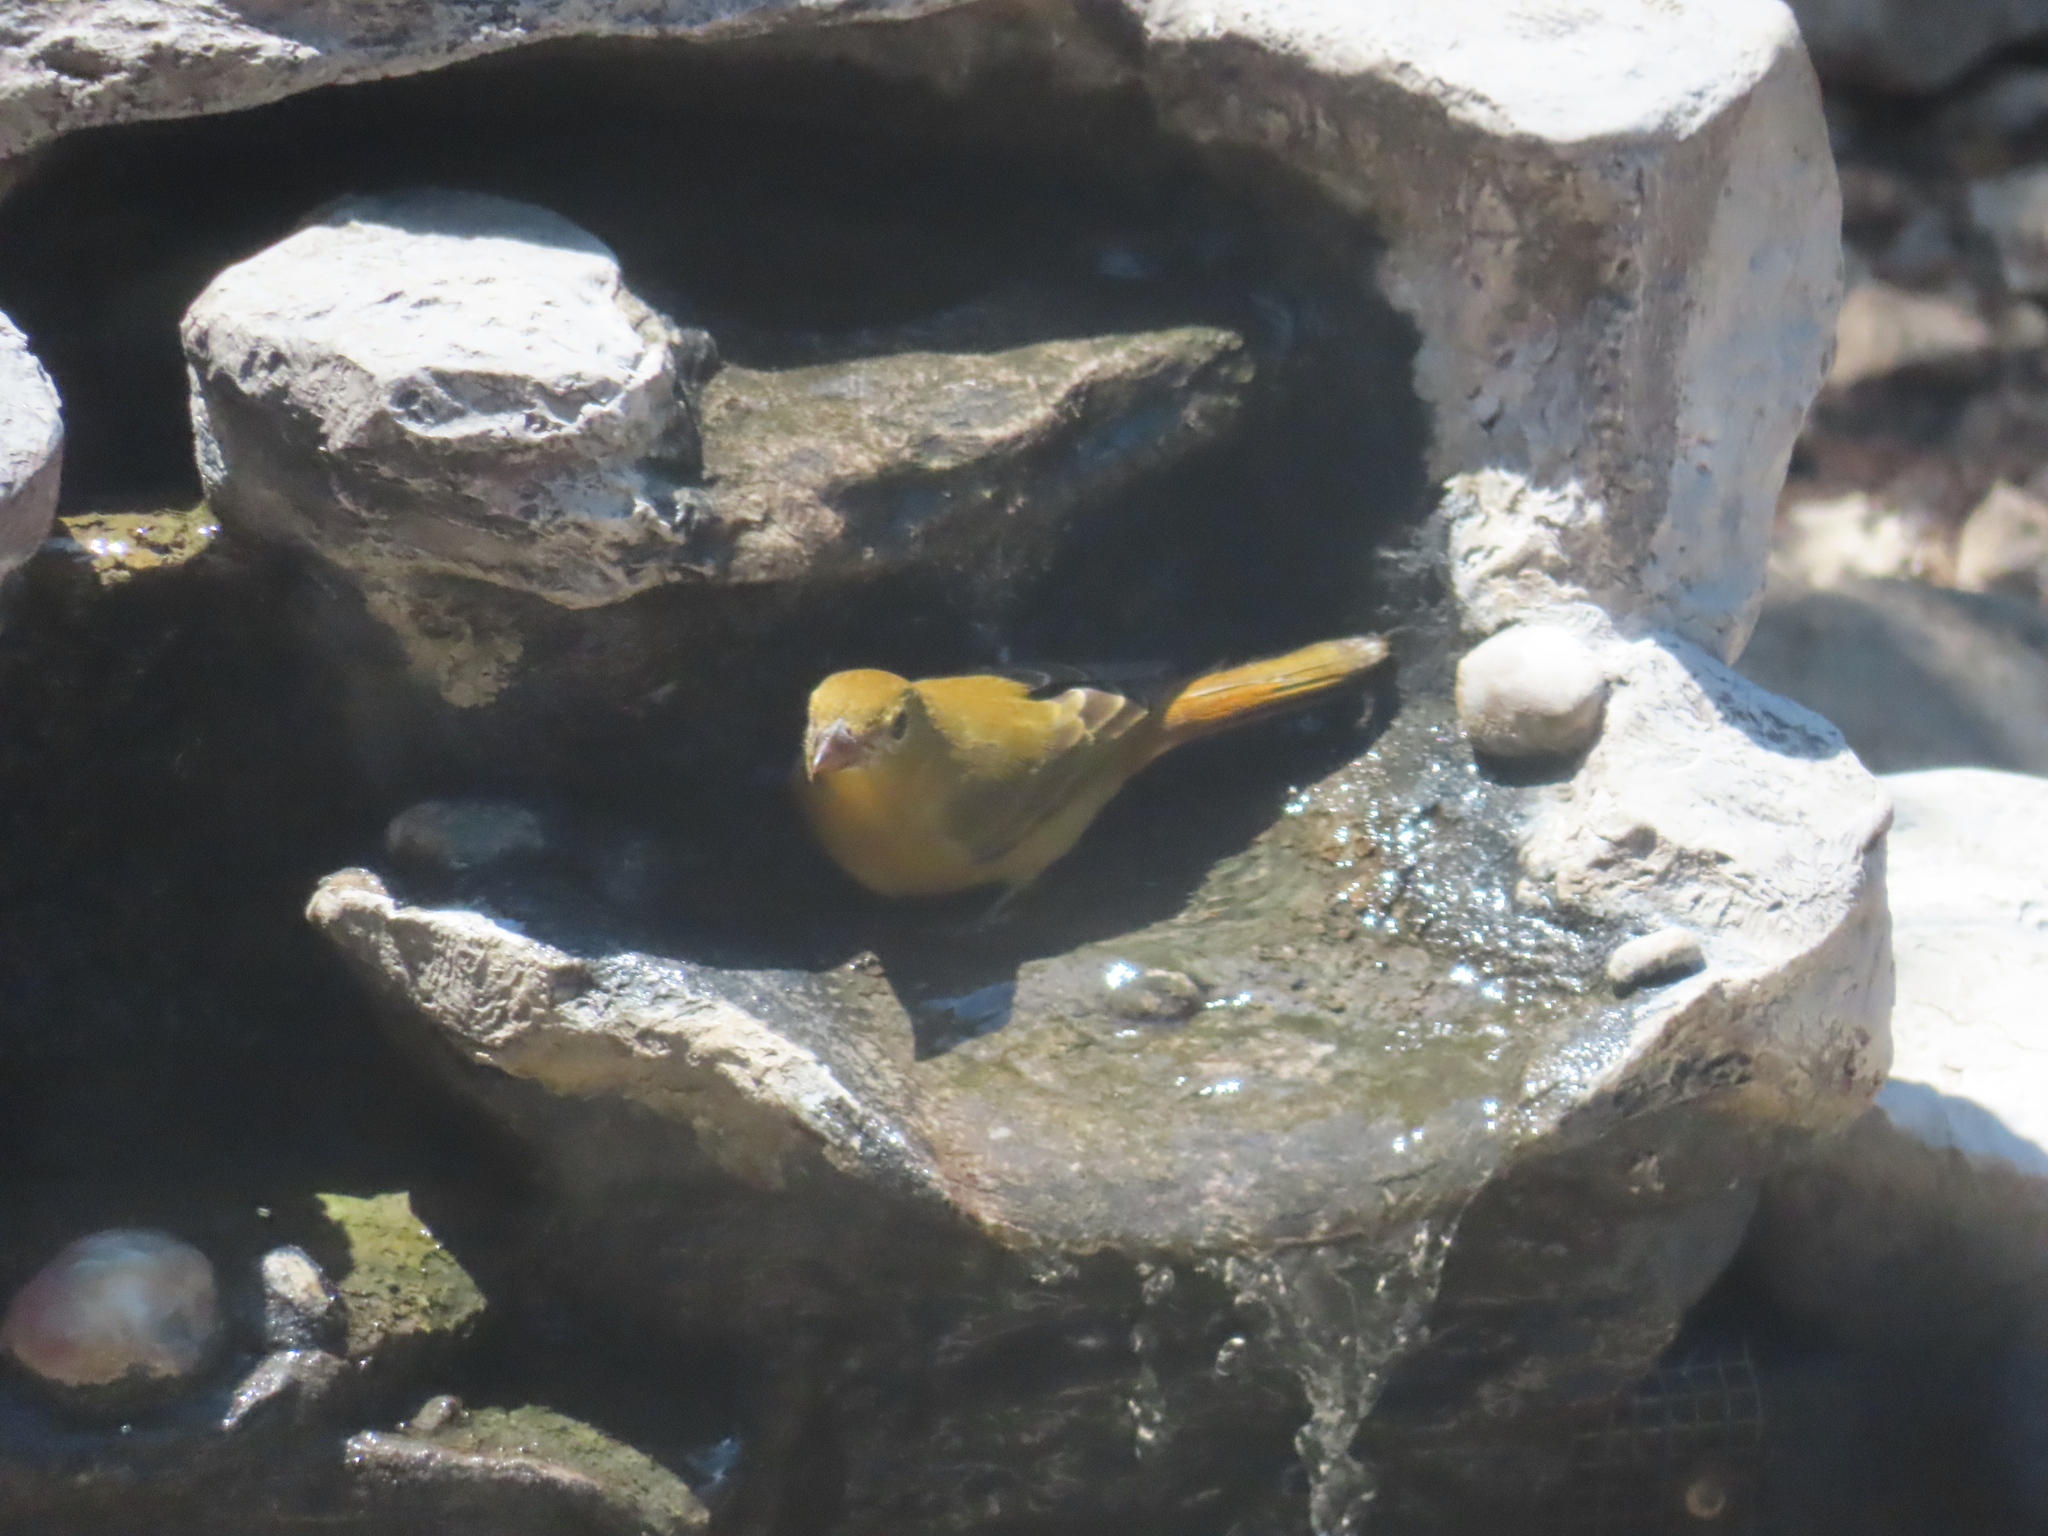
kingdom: Animalia
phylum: Chordata
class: Aves
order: Passeriformes
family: Cardinalidae
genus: Piranga
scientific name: Piranga rubra
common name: Summer tanager
